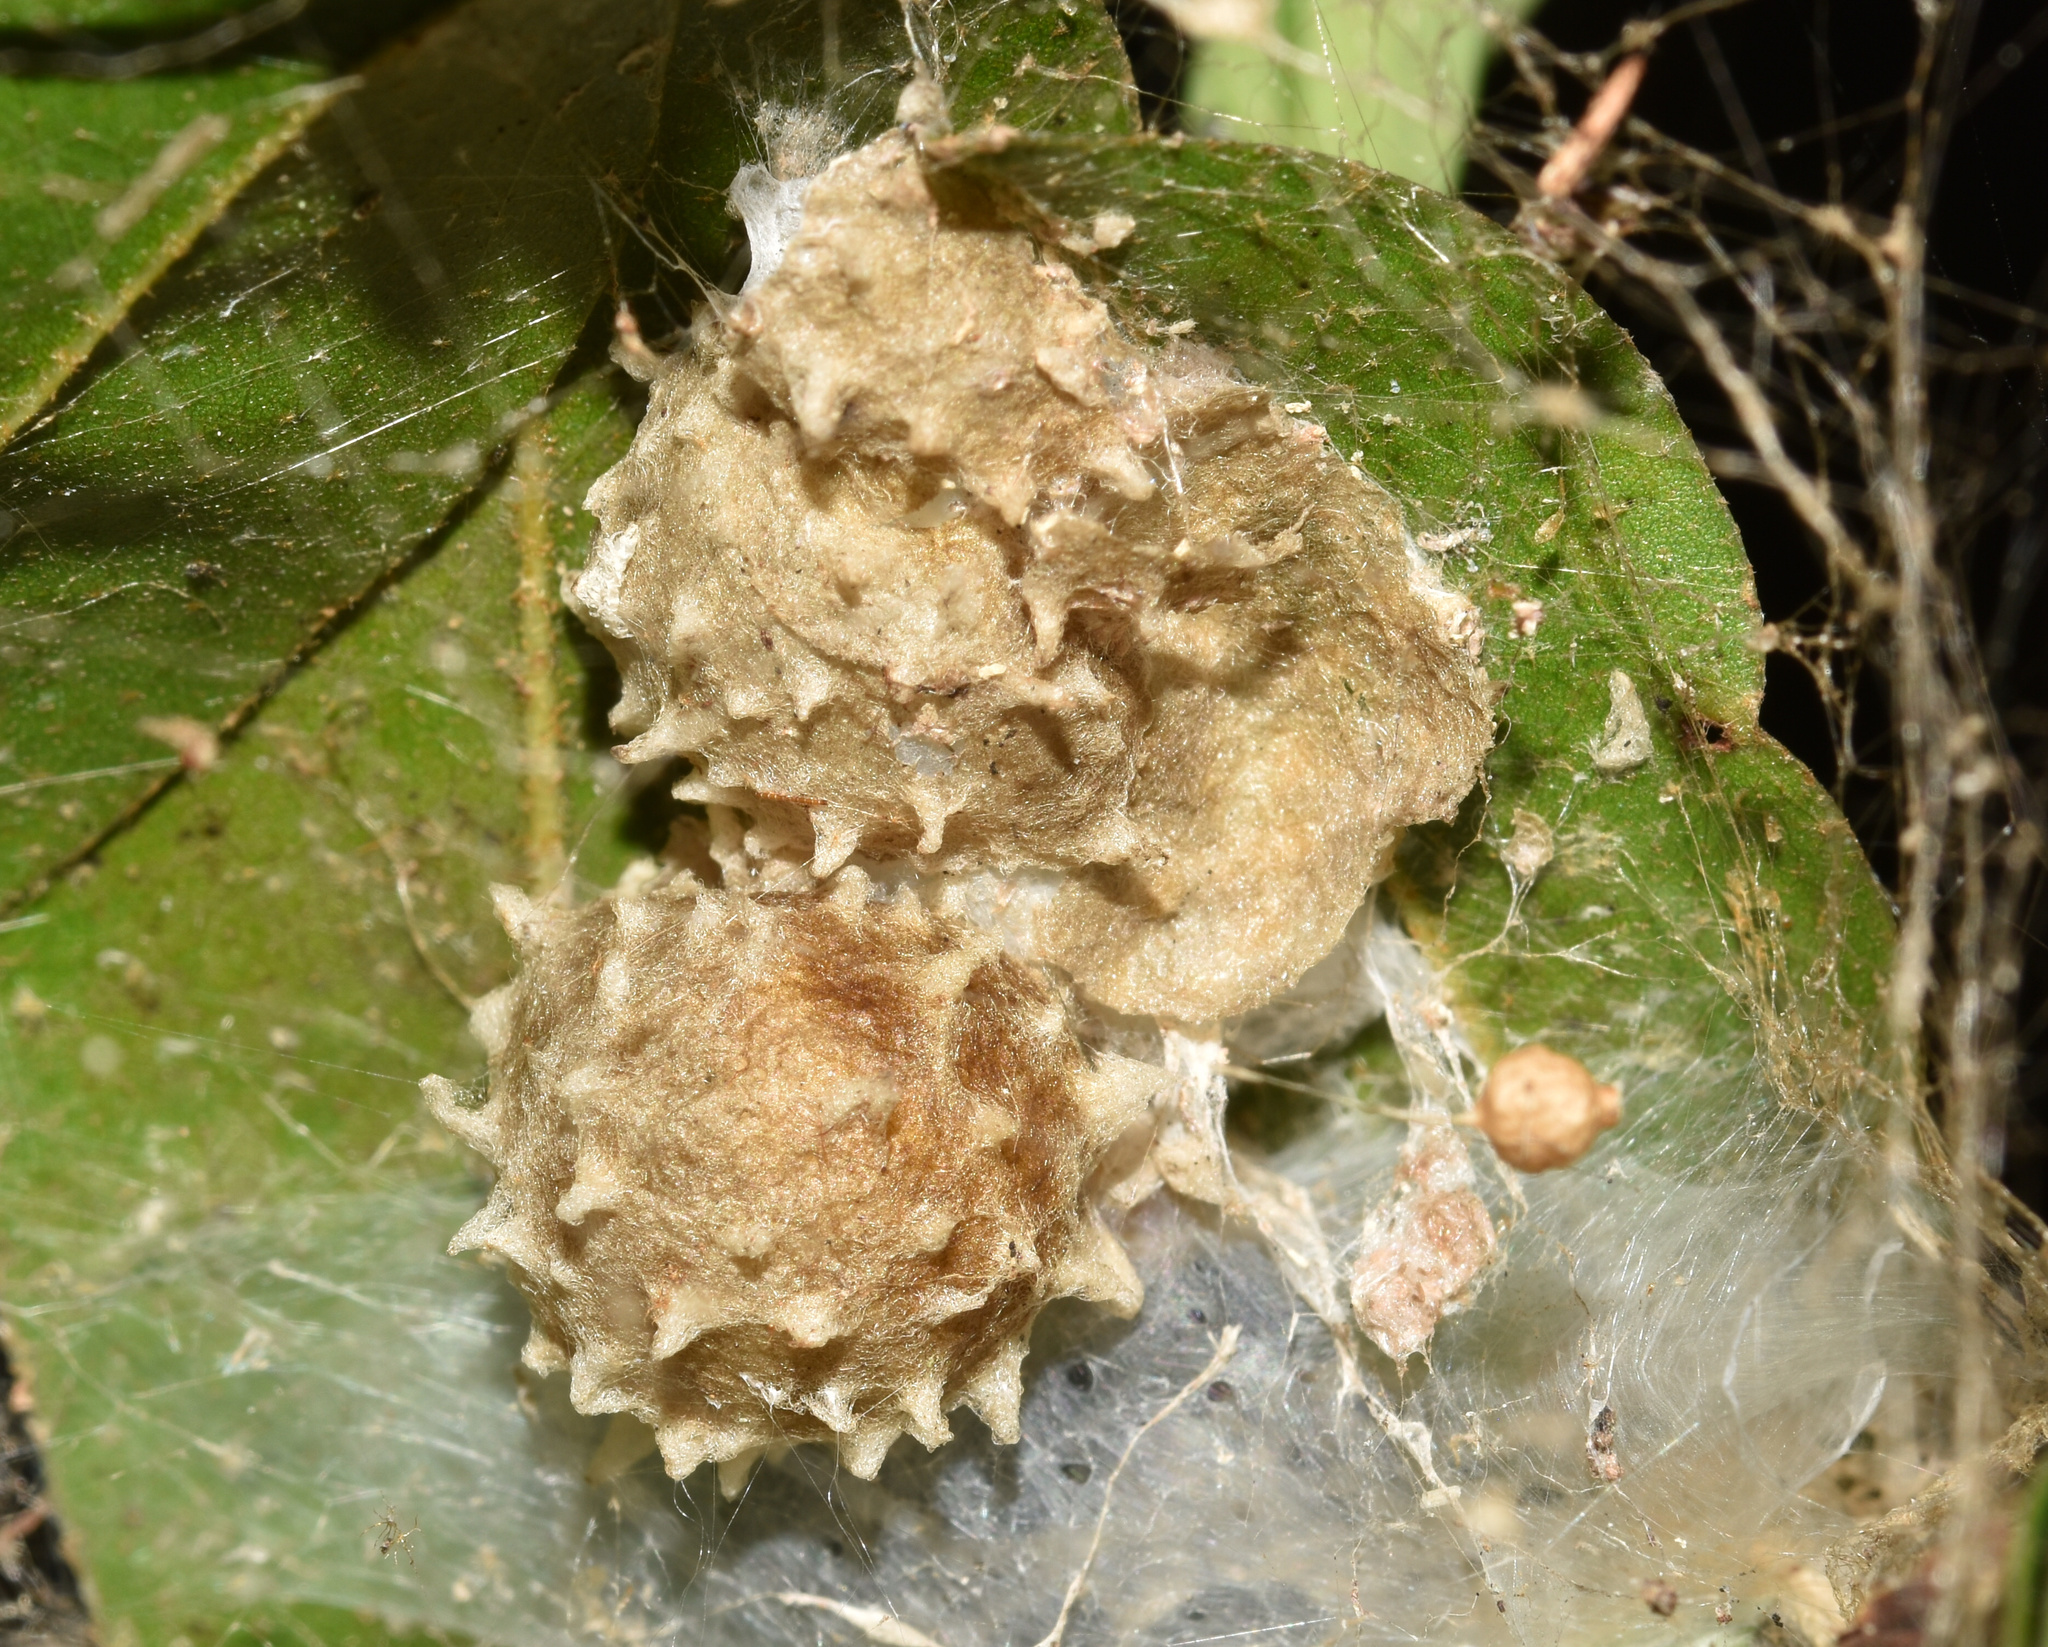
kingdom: Animalia
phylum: Arthropoda
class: Arachnida
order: Araneae
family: Theridiidae
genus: Latrodectus
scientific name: Latrodectus geometricus
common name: Brown widow spider
